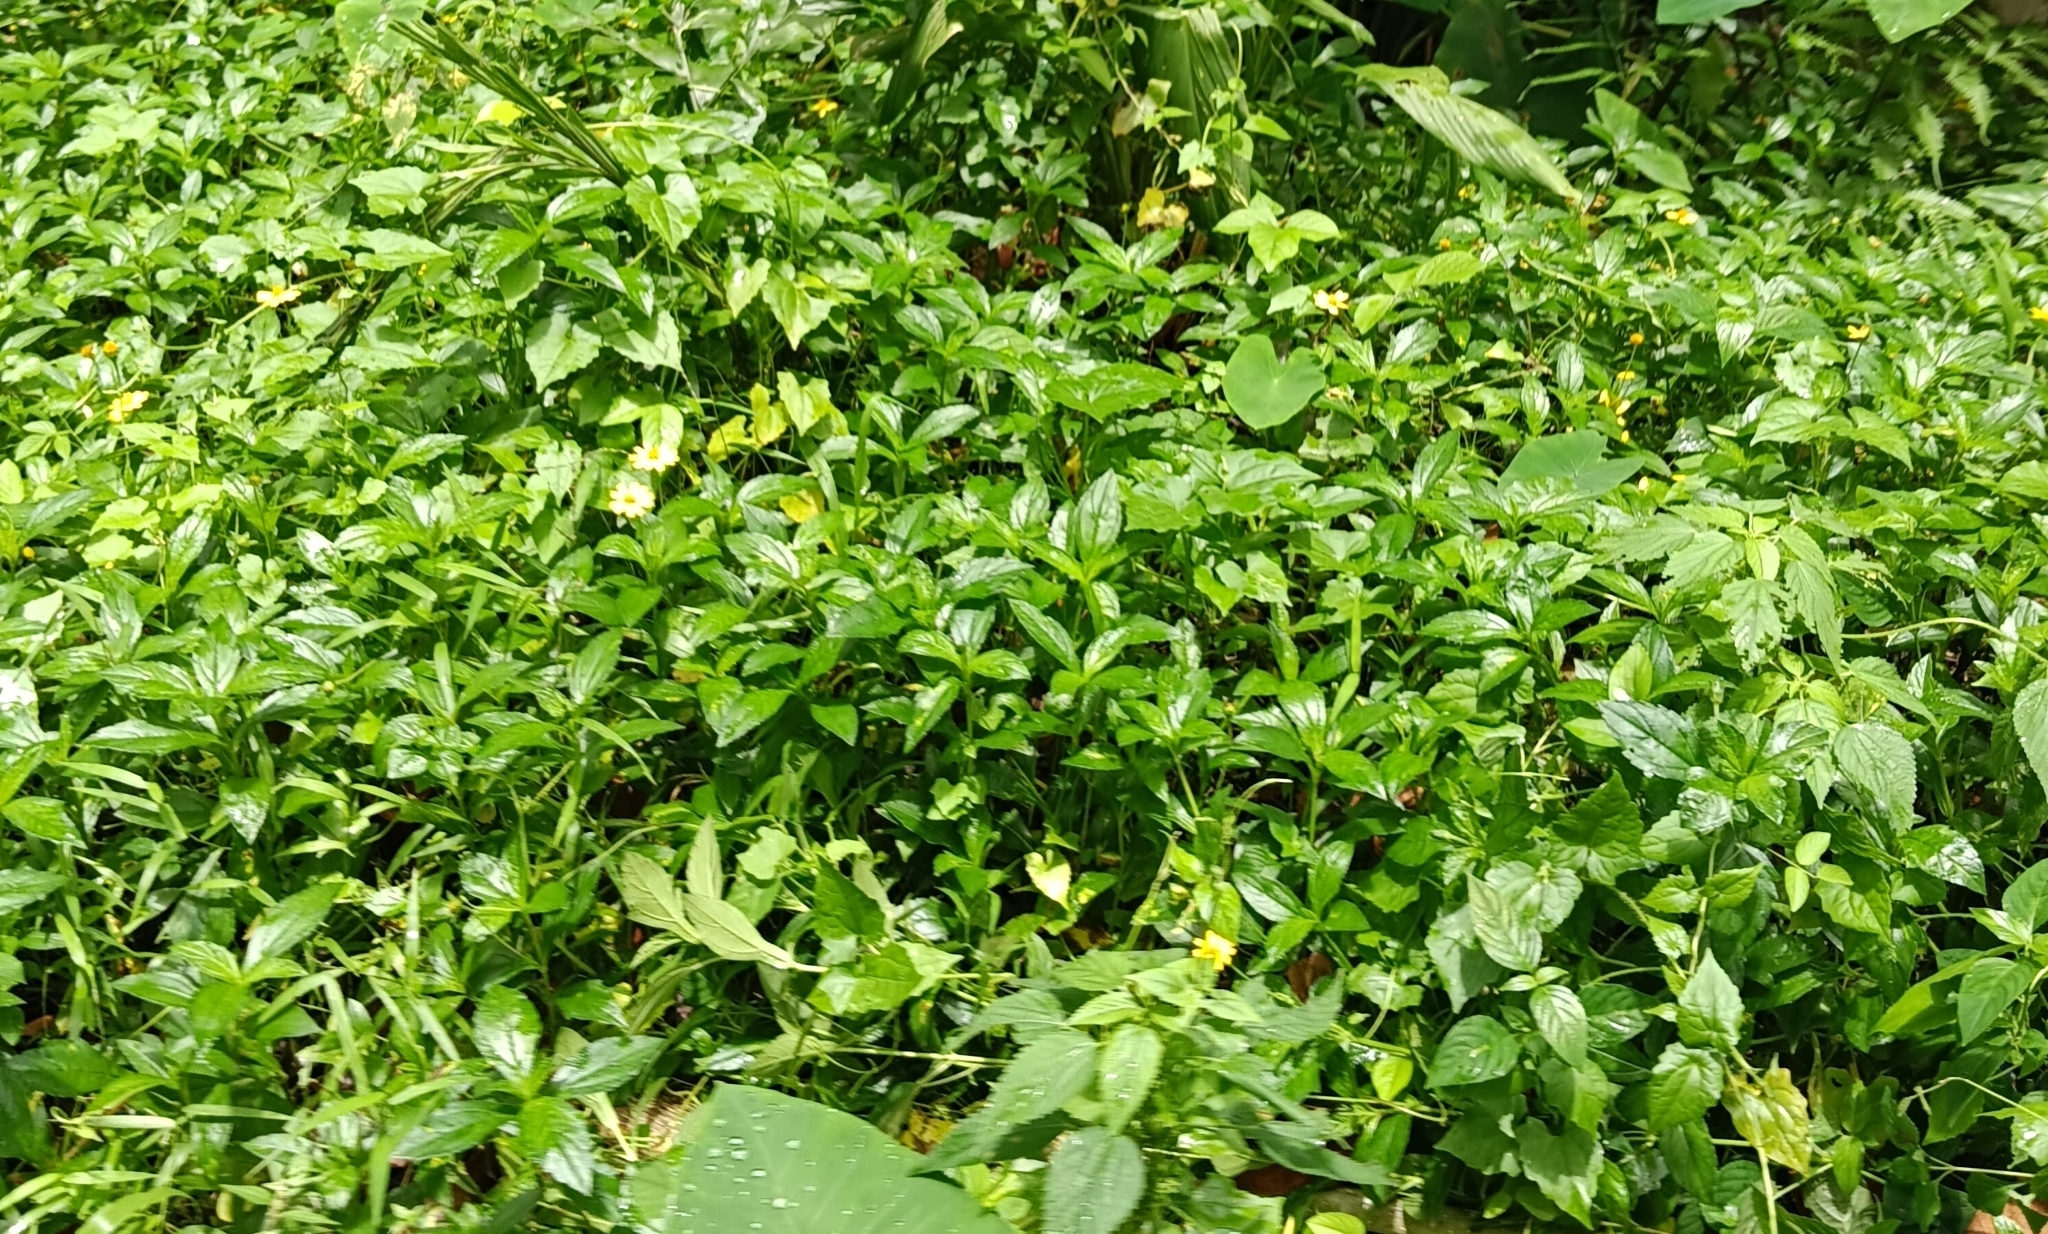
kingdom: Plantae
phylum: Tracheophyta
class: Magnoliopsida
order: Asterales
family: Asteraceae
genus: Sphagneticola
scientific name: Sphagneticola trilobata
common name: Bay biscayne creeping-oxeye
